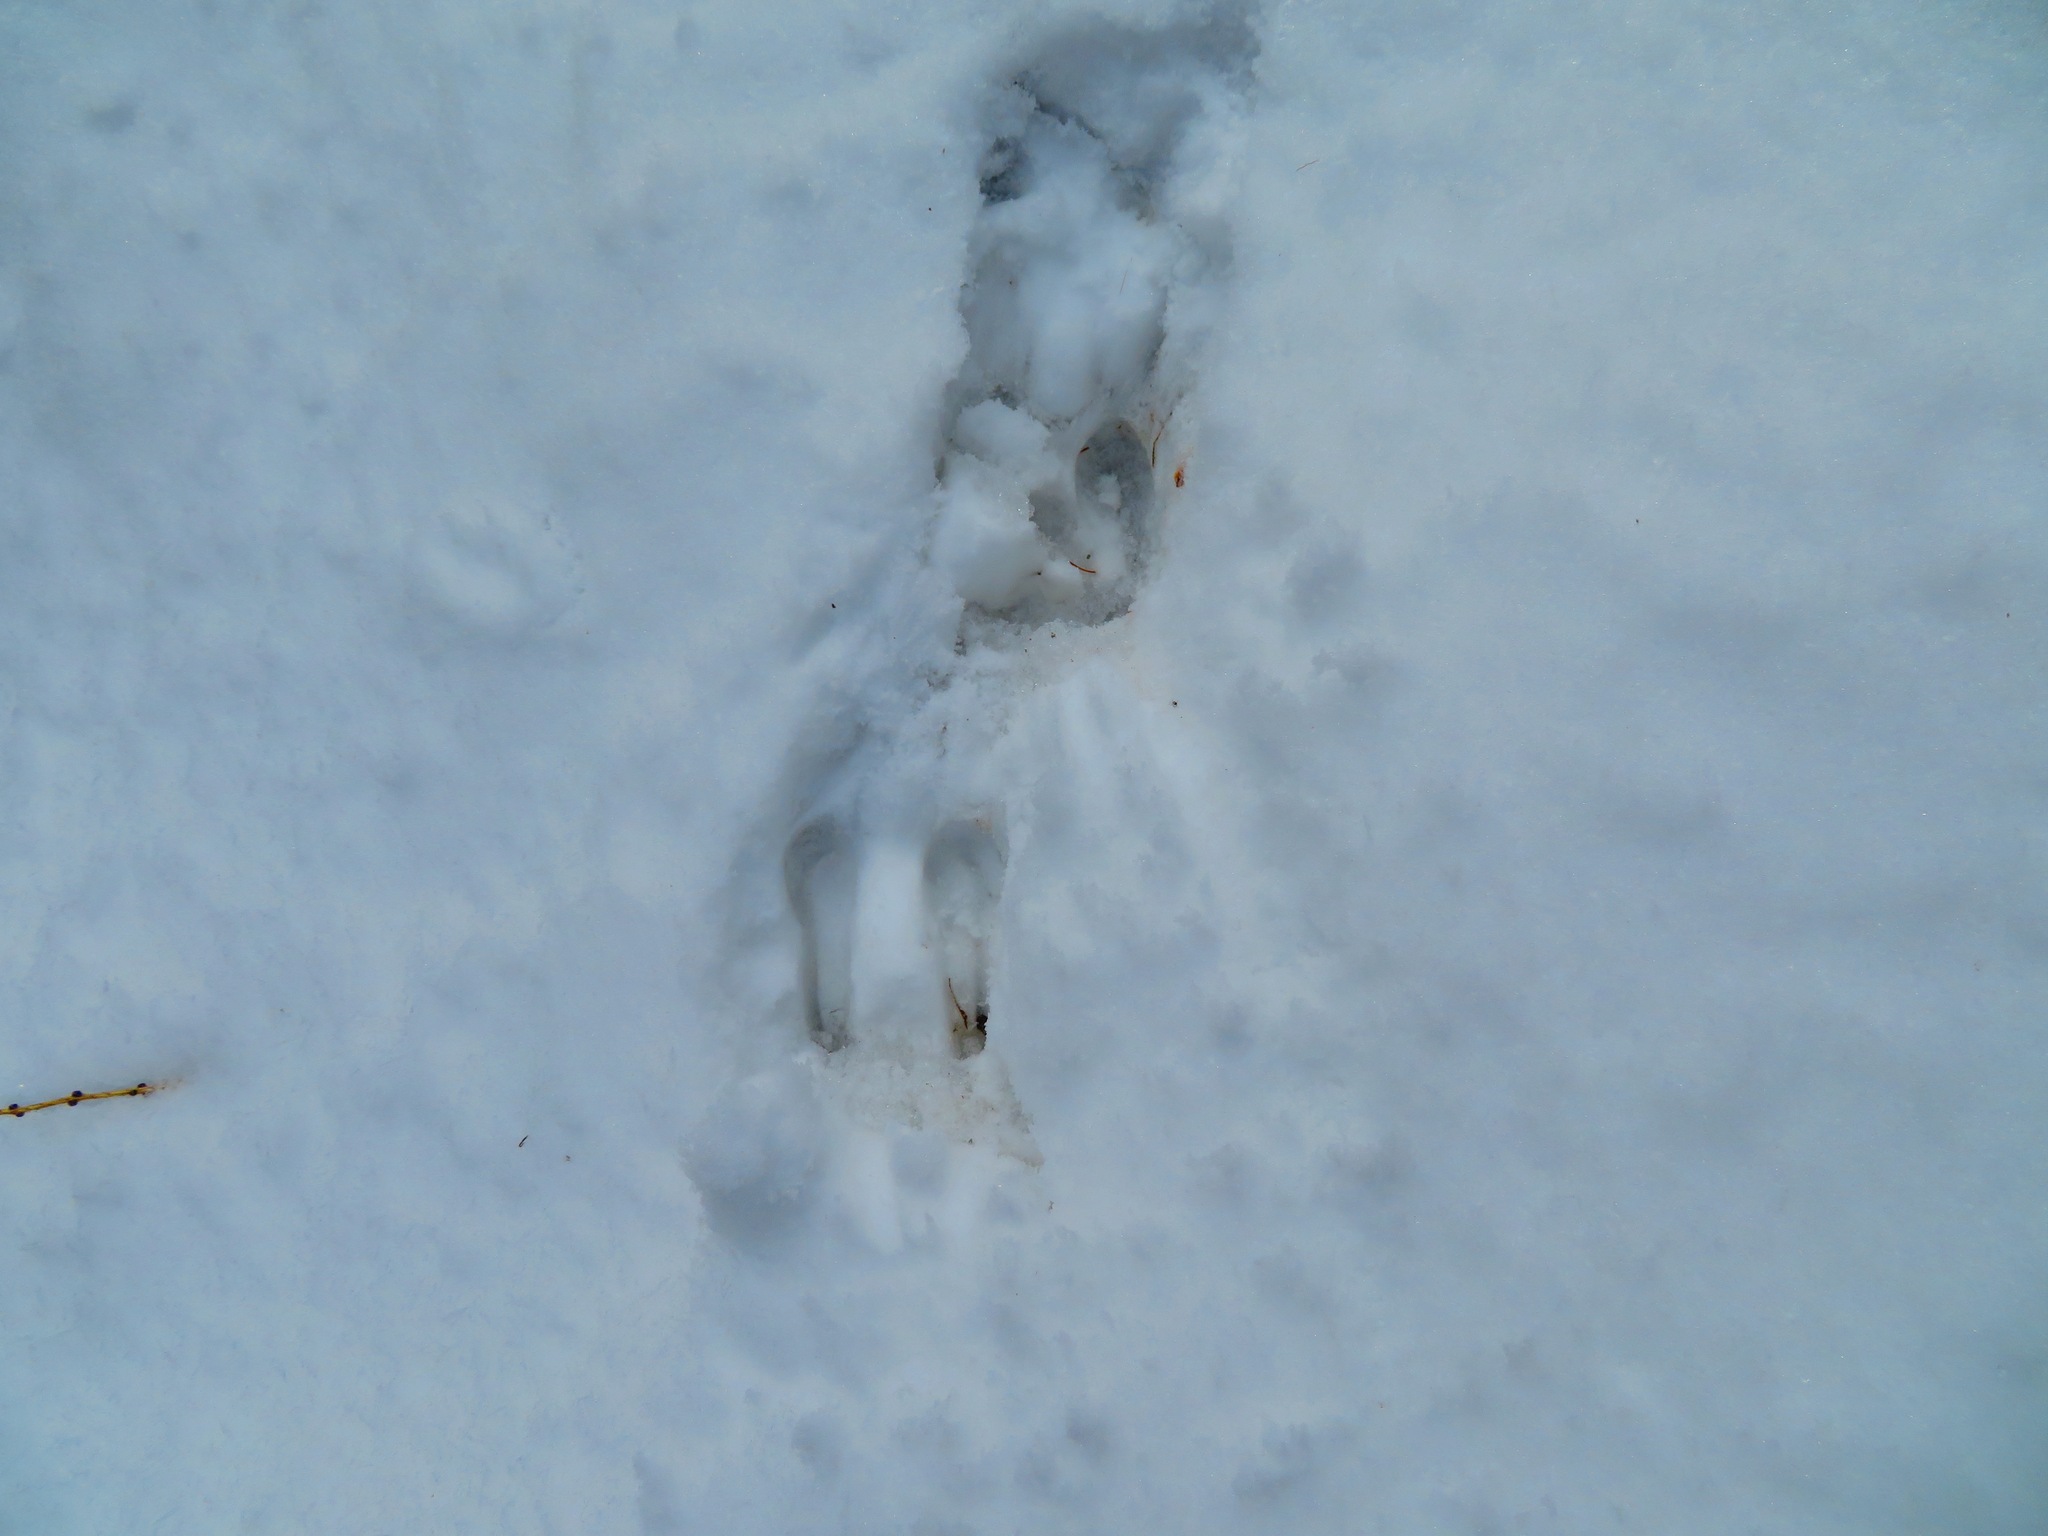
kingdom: Animalia
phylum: Chordata
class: Mammalia
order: Artiodactyla
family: Bovidae
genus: Rupicapra
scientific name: Rupicapra rupicapra
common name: Chamois
